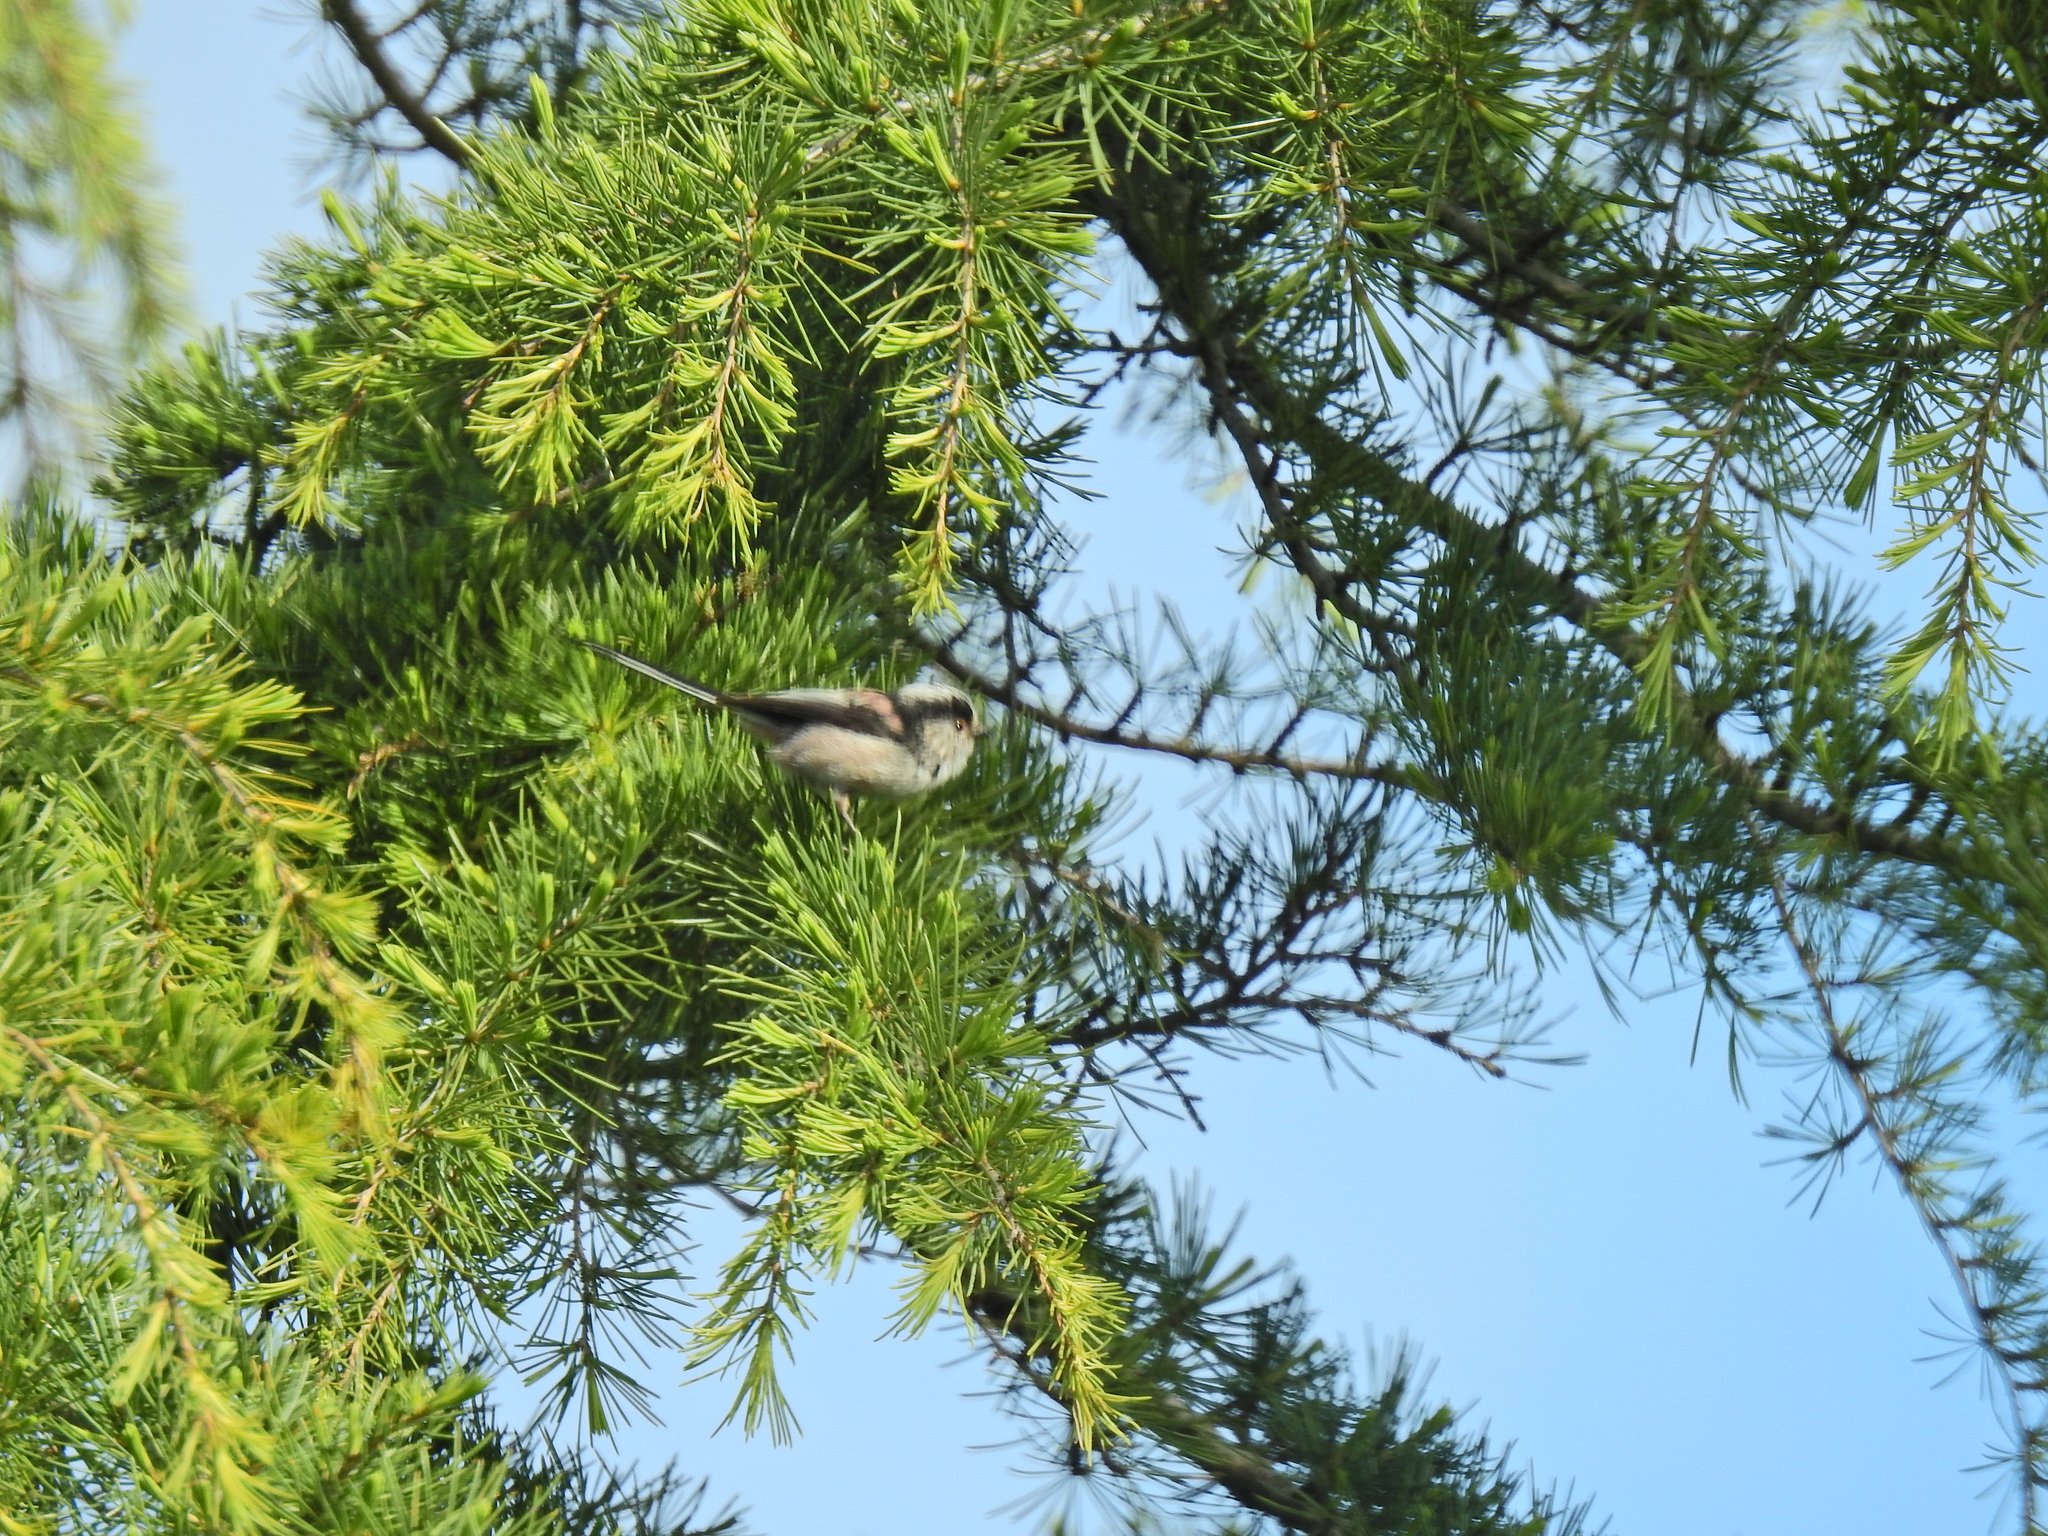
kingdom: Animalia
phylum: Chordata
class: Aves
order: Passeriformes
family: Aegithalidae
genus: Aegithalos
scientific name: Aegithalos caudatus
